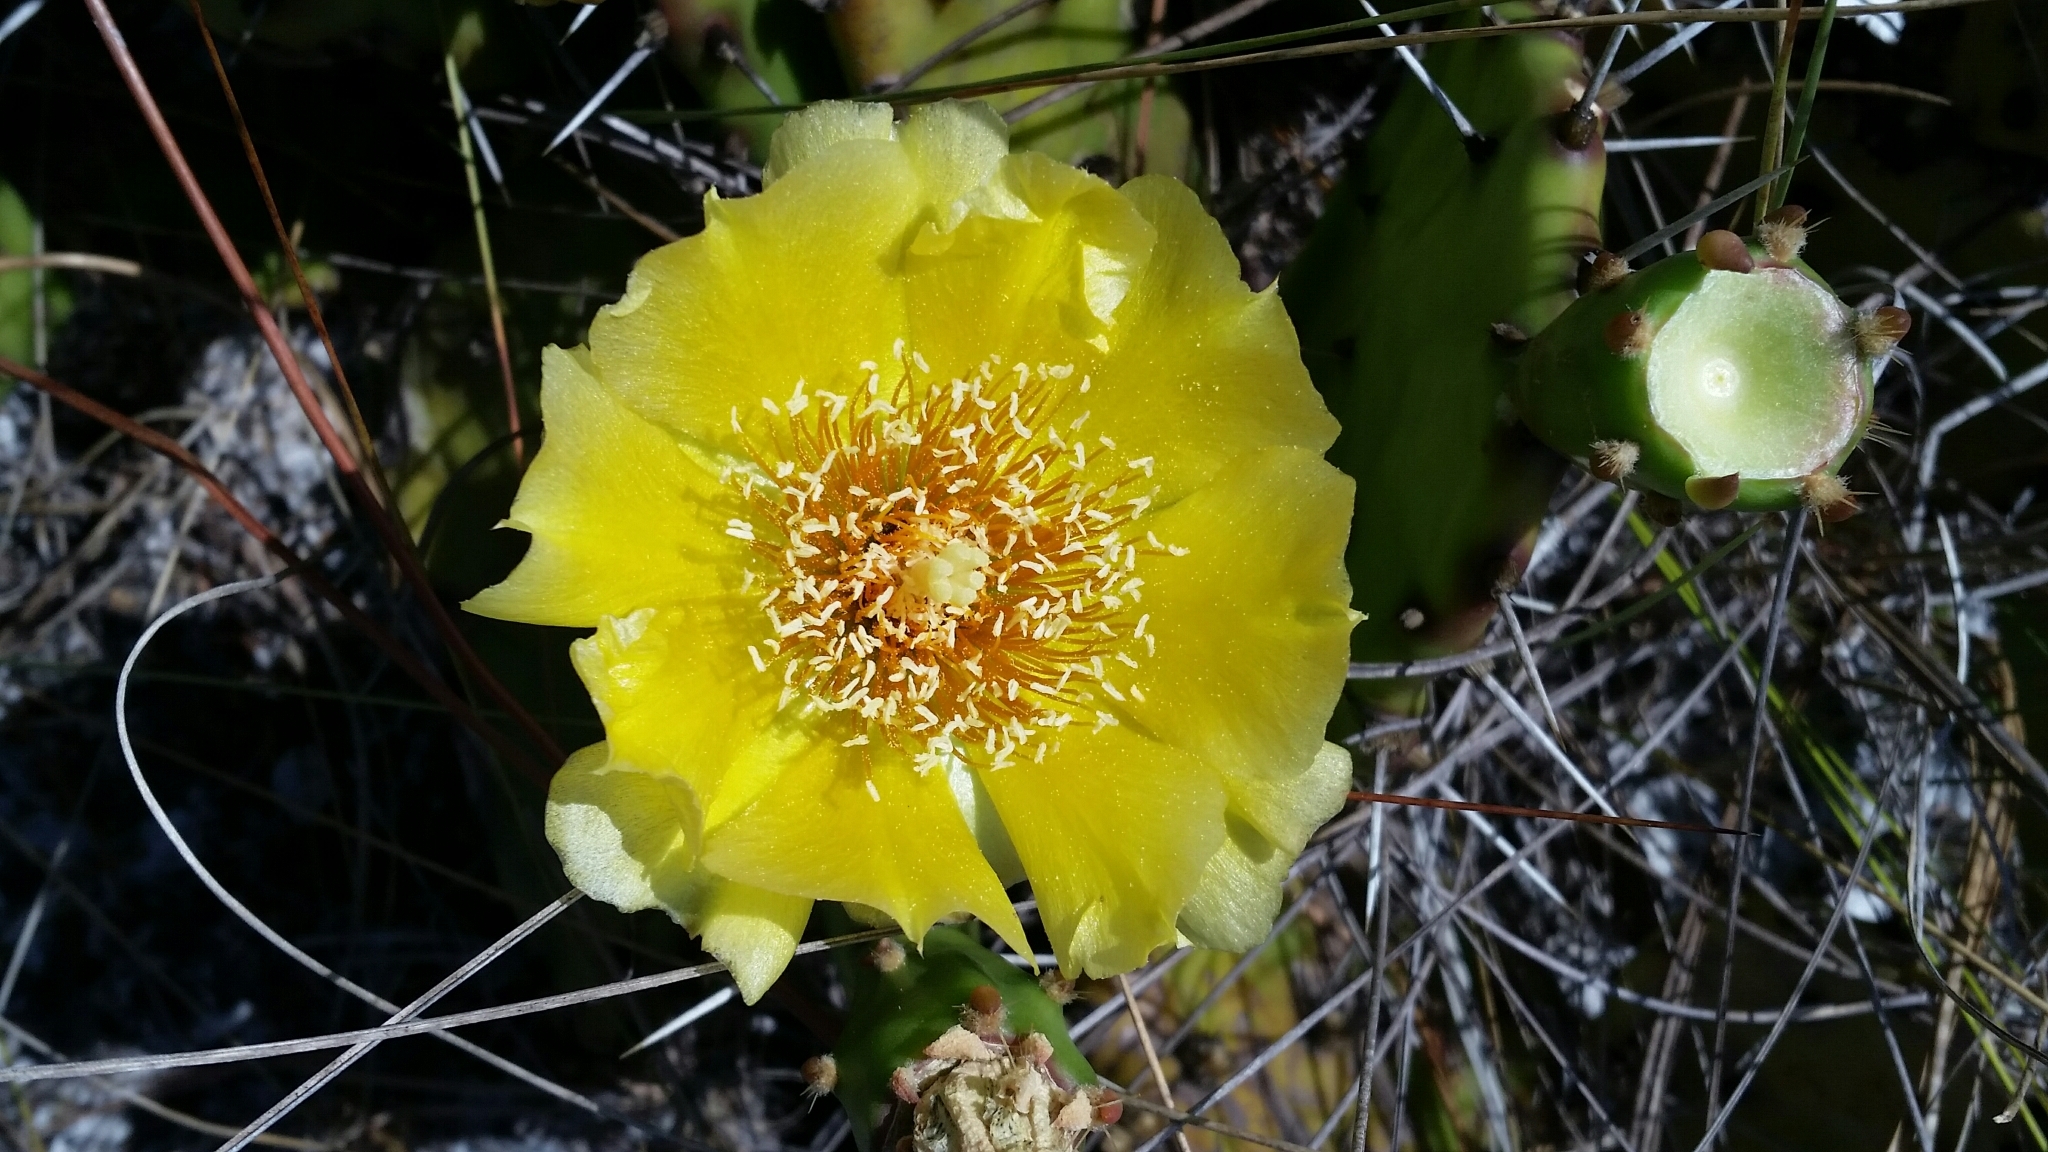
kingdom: Plantae
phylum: Tracheophyta
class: Magnoliopsida
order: Caryophyllales
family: Cactaceae
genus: Opuntia
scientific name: Opuntia austrina
